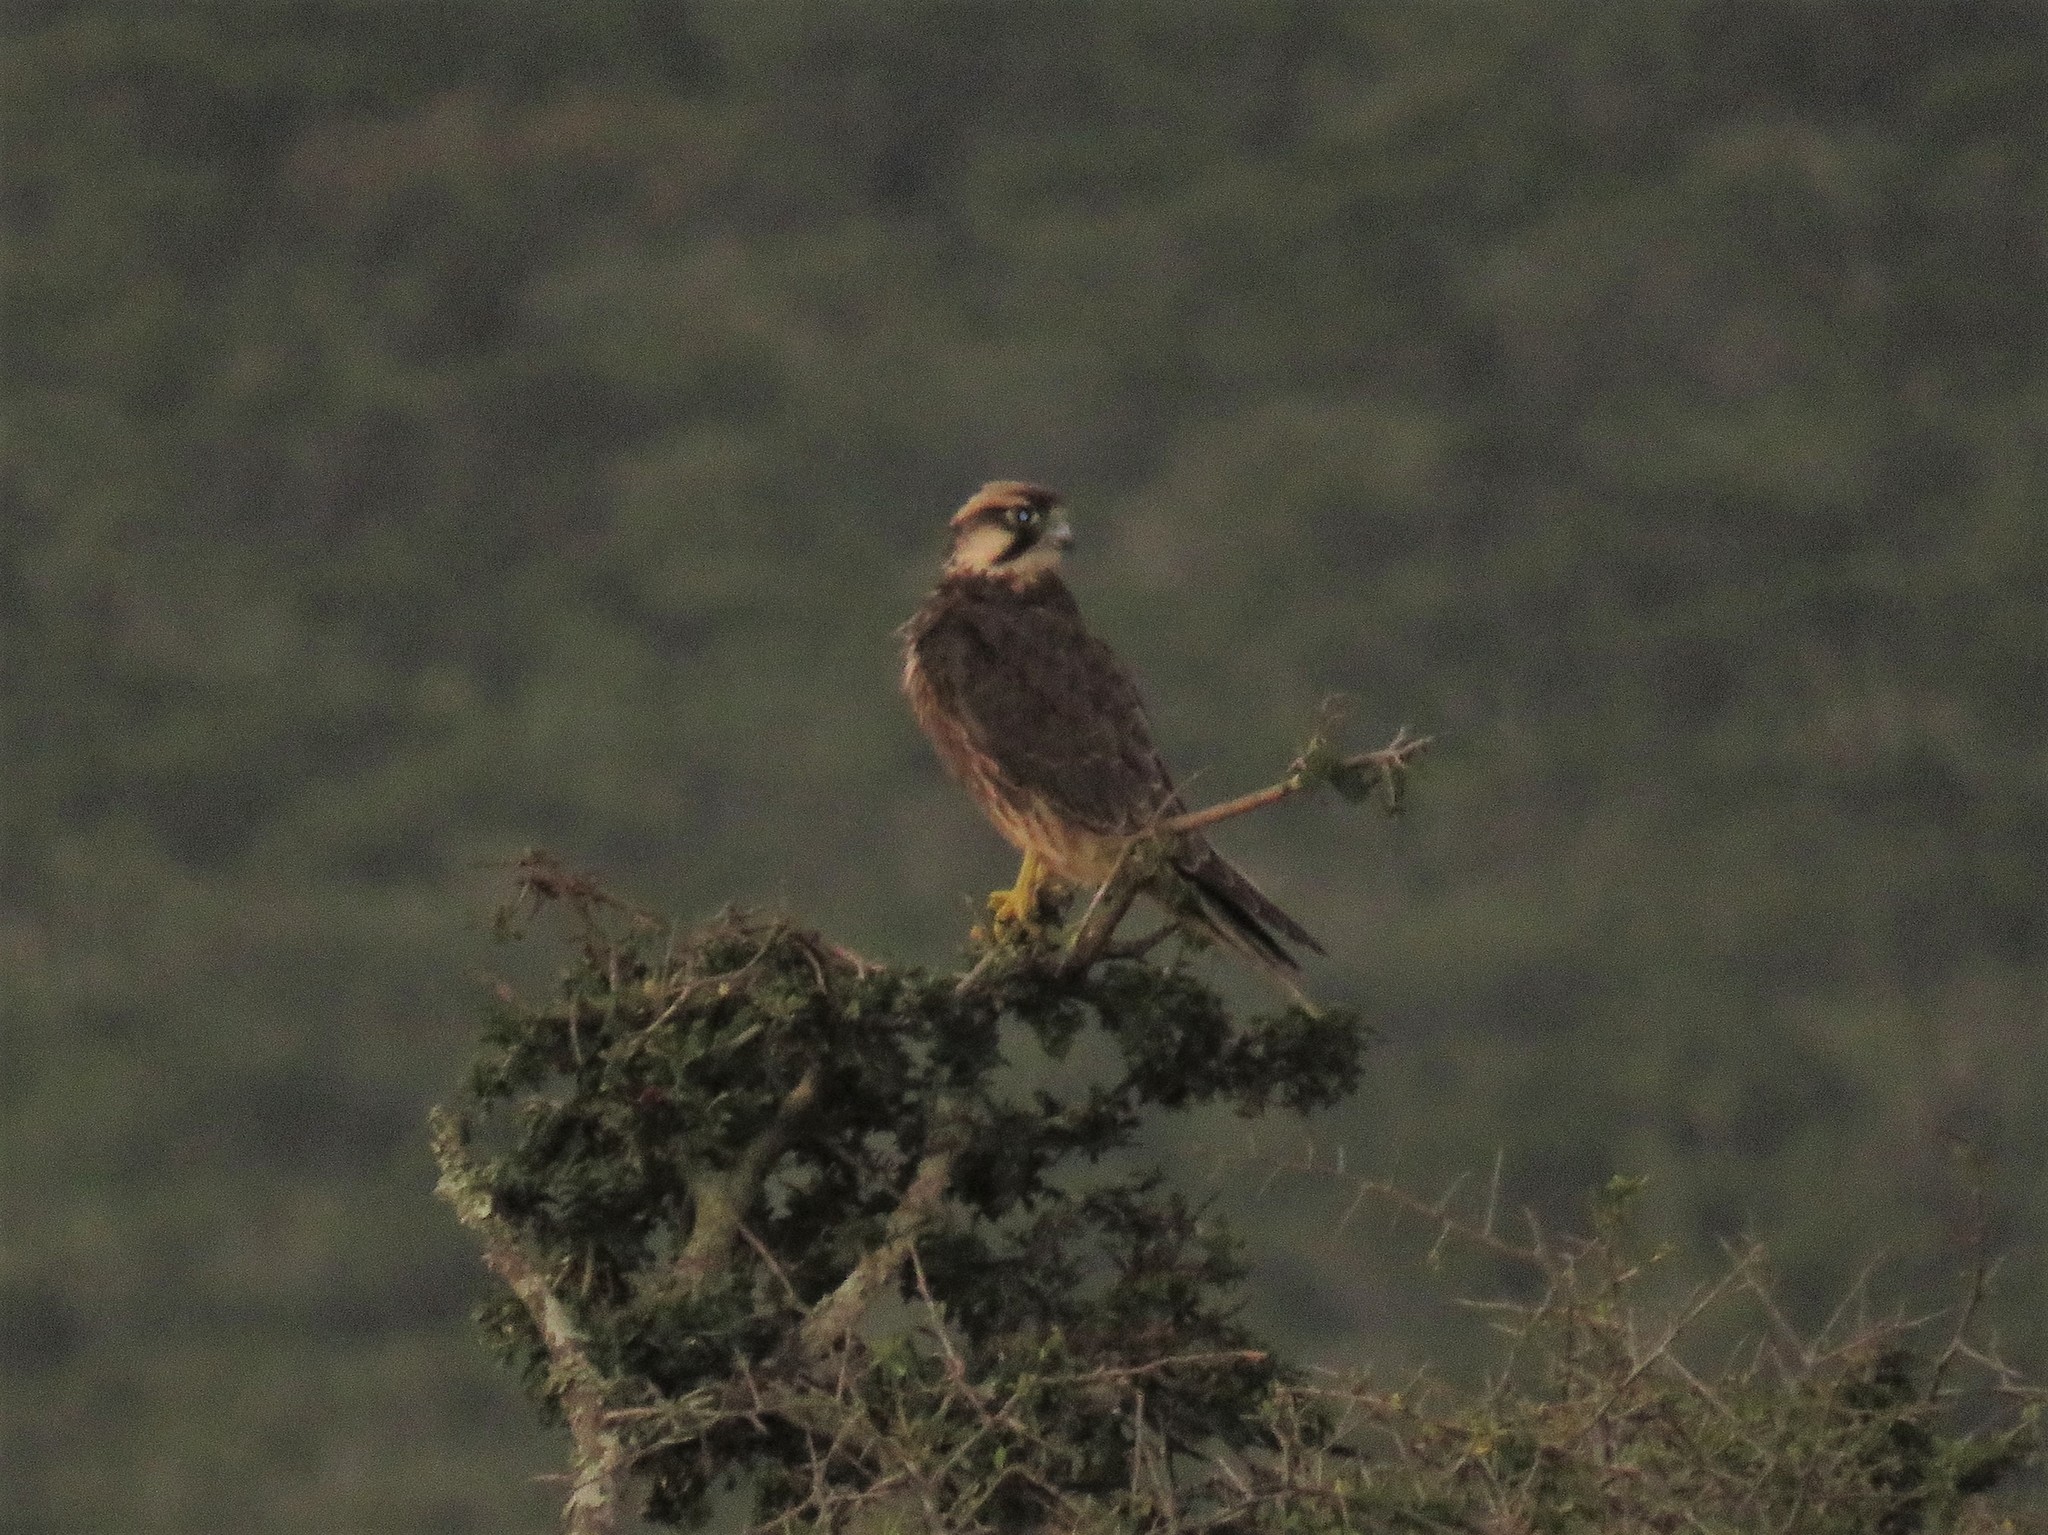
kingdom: Animalia
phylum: Chordata
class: Aves
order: Falconiformes
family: Falconidae
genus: Falco
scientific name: Falco biarmicus
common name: Lanner falcon
